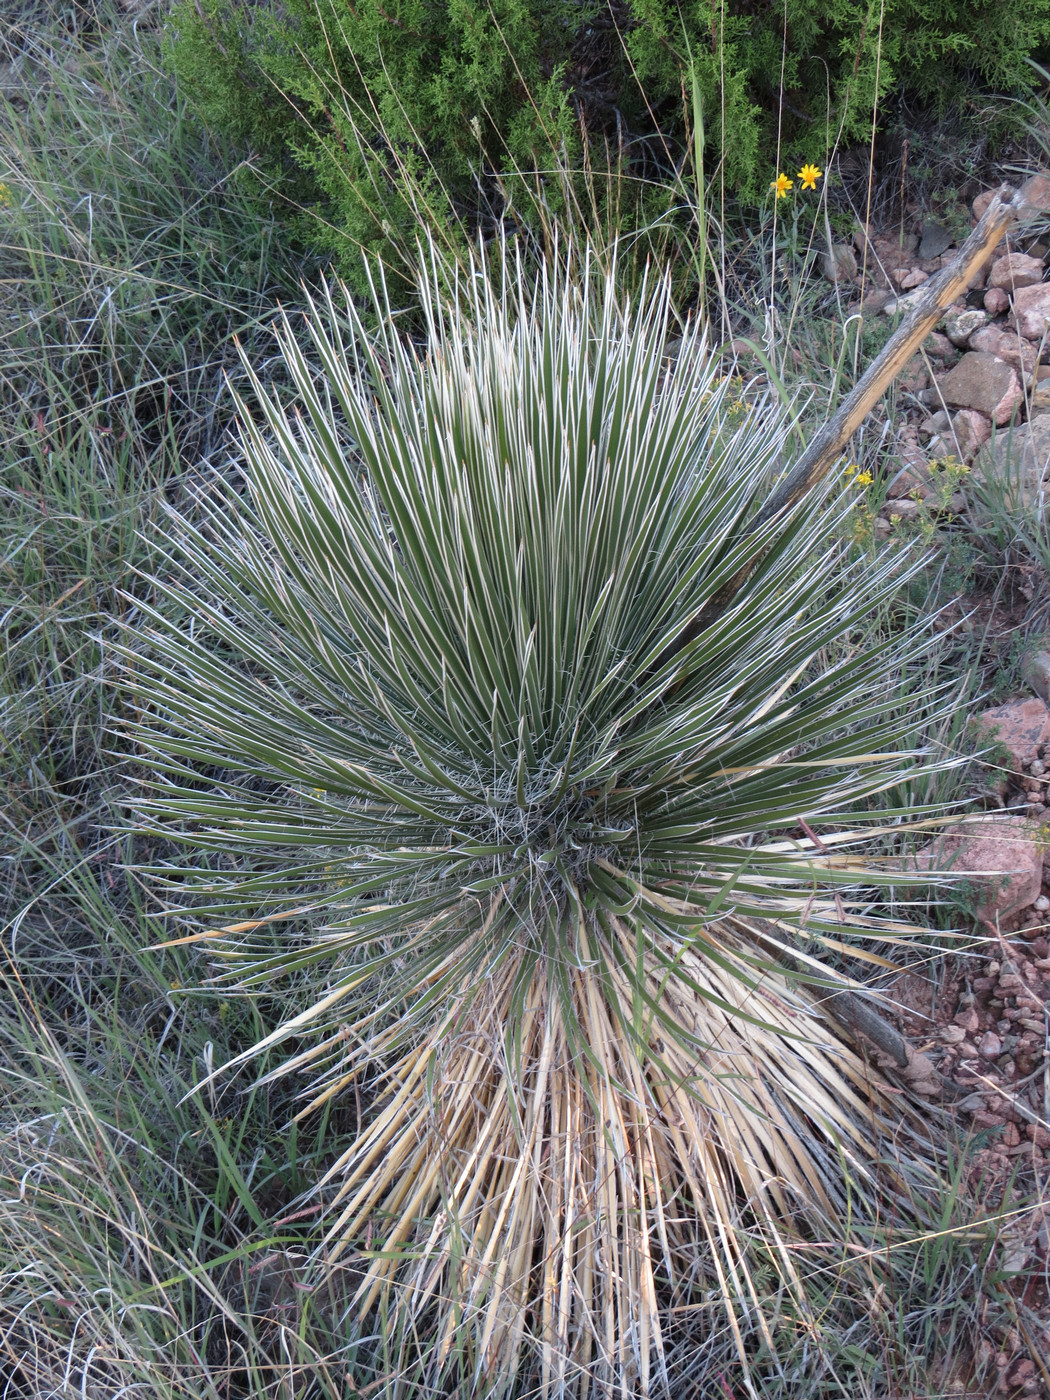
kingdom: Plantae
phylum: Tracheophyta
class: Liliopsida
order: Asparagales
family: Asparagaceae
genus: Yucca
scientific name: Yucca elata
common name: Palmella
